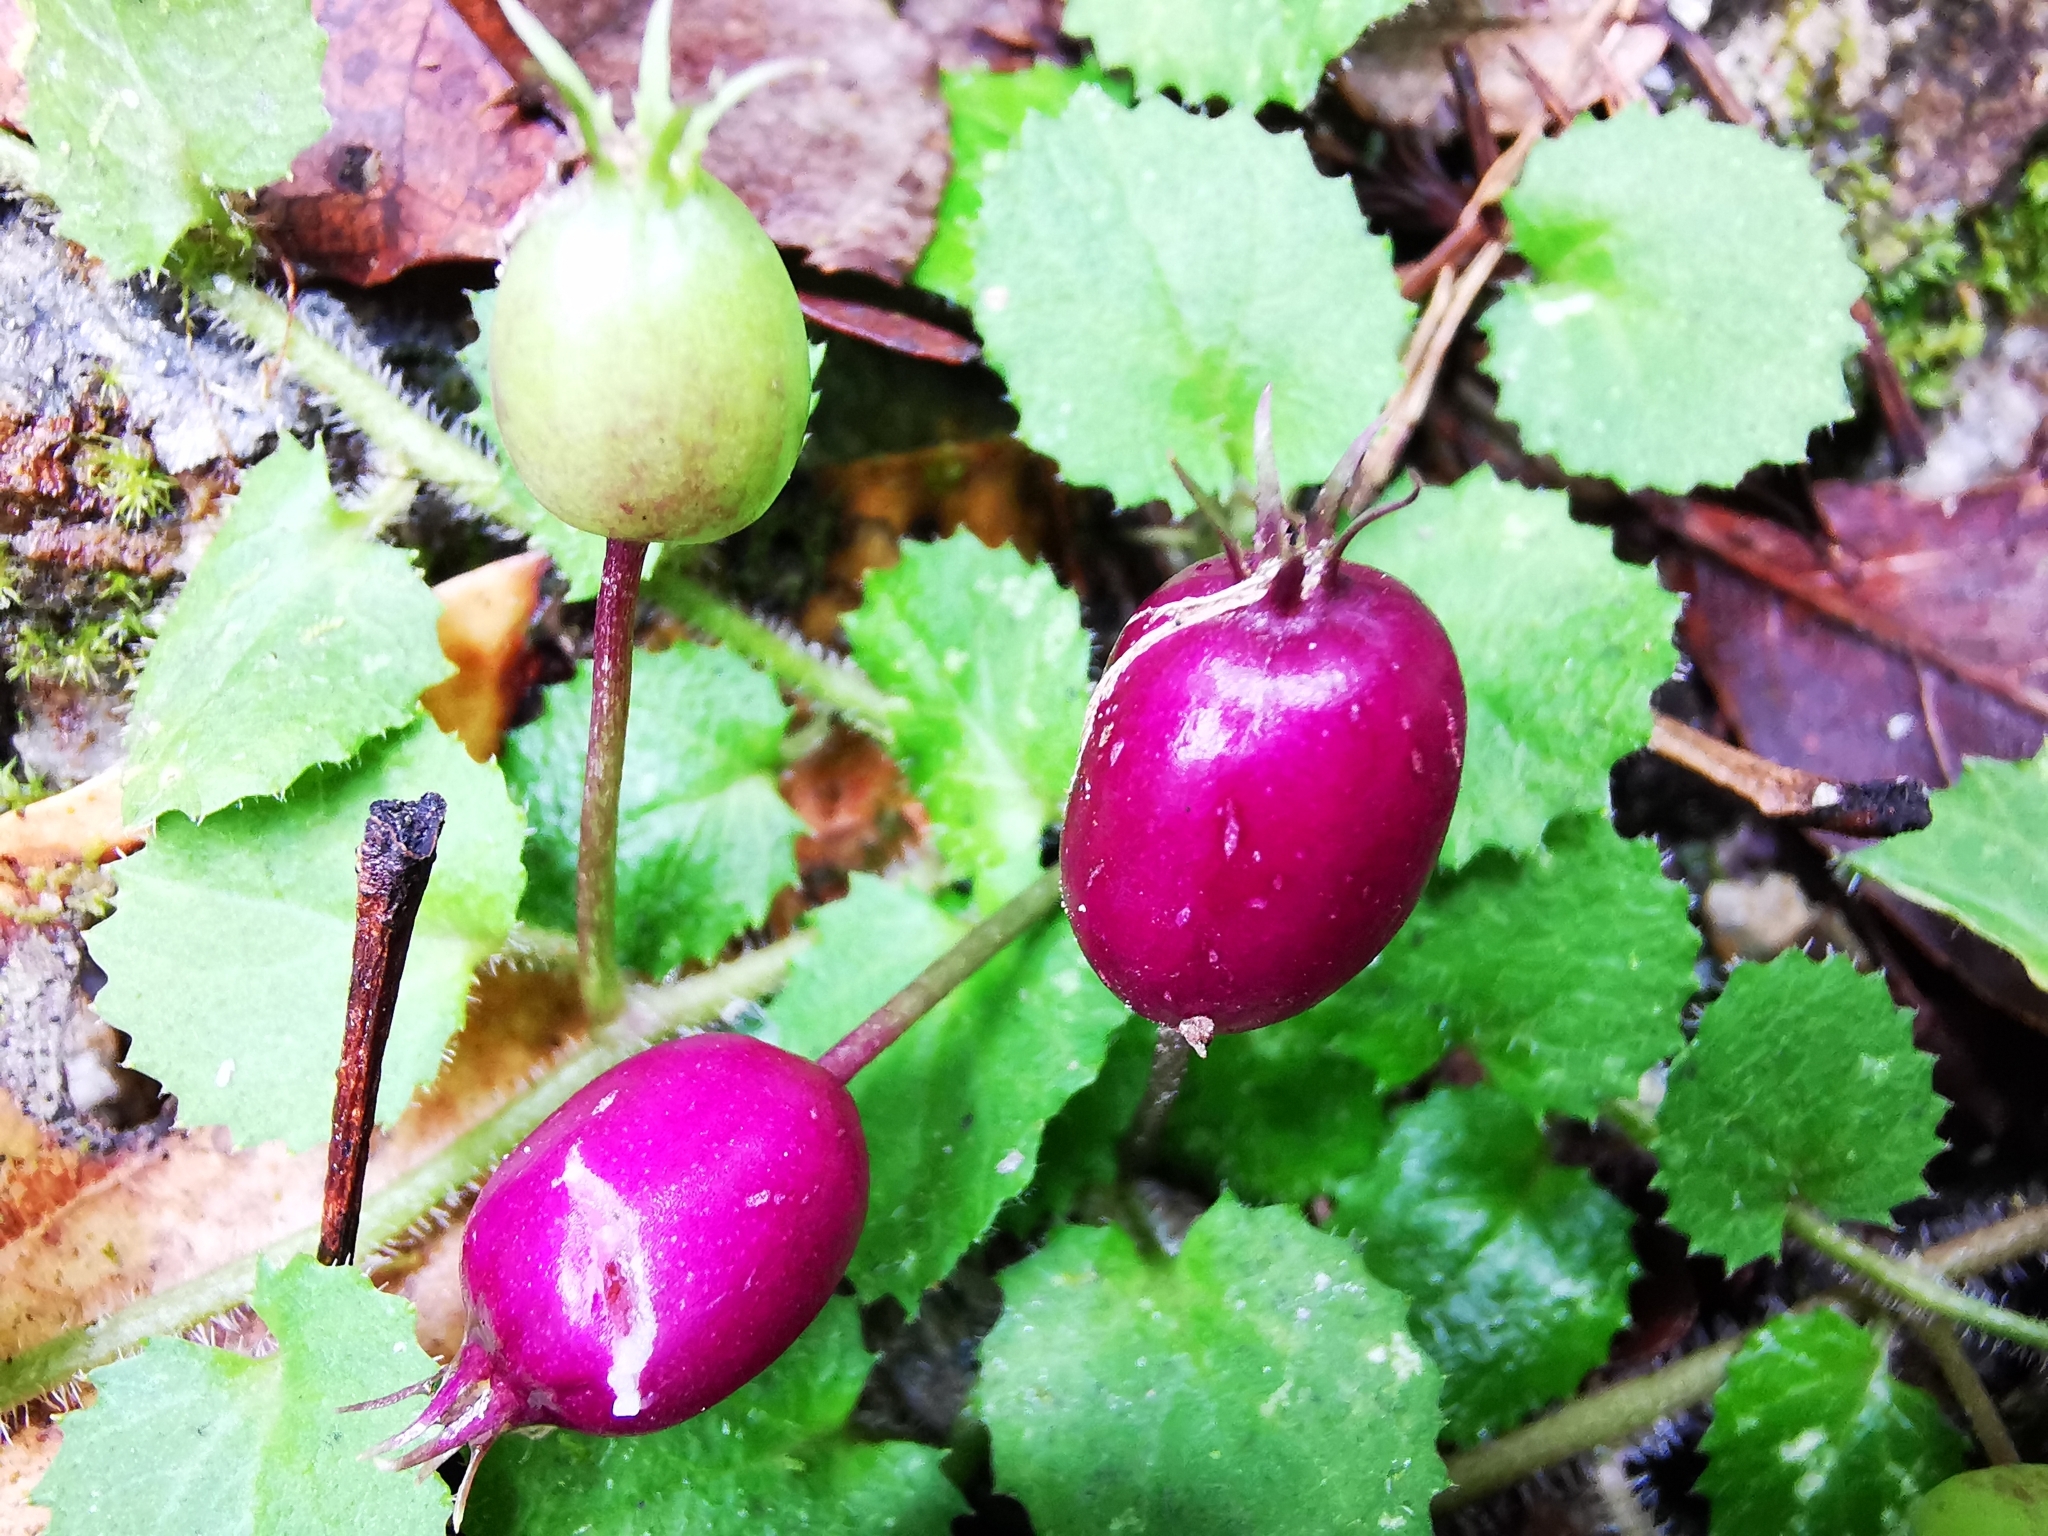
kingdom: Plantae
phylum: Tracheophyta
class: Magnoliopsida
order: Asterales
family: Campanulaceae
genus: Lobelia
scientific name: Lobelia nummularia
